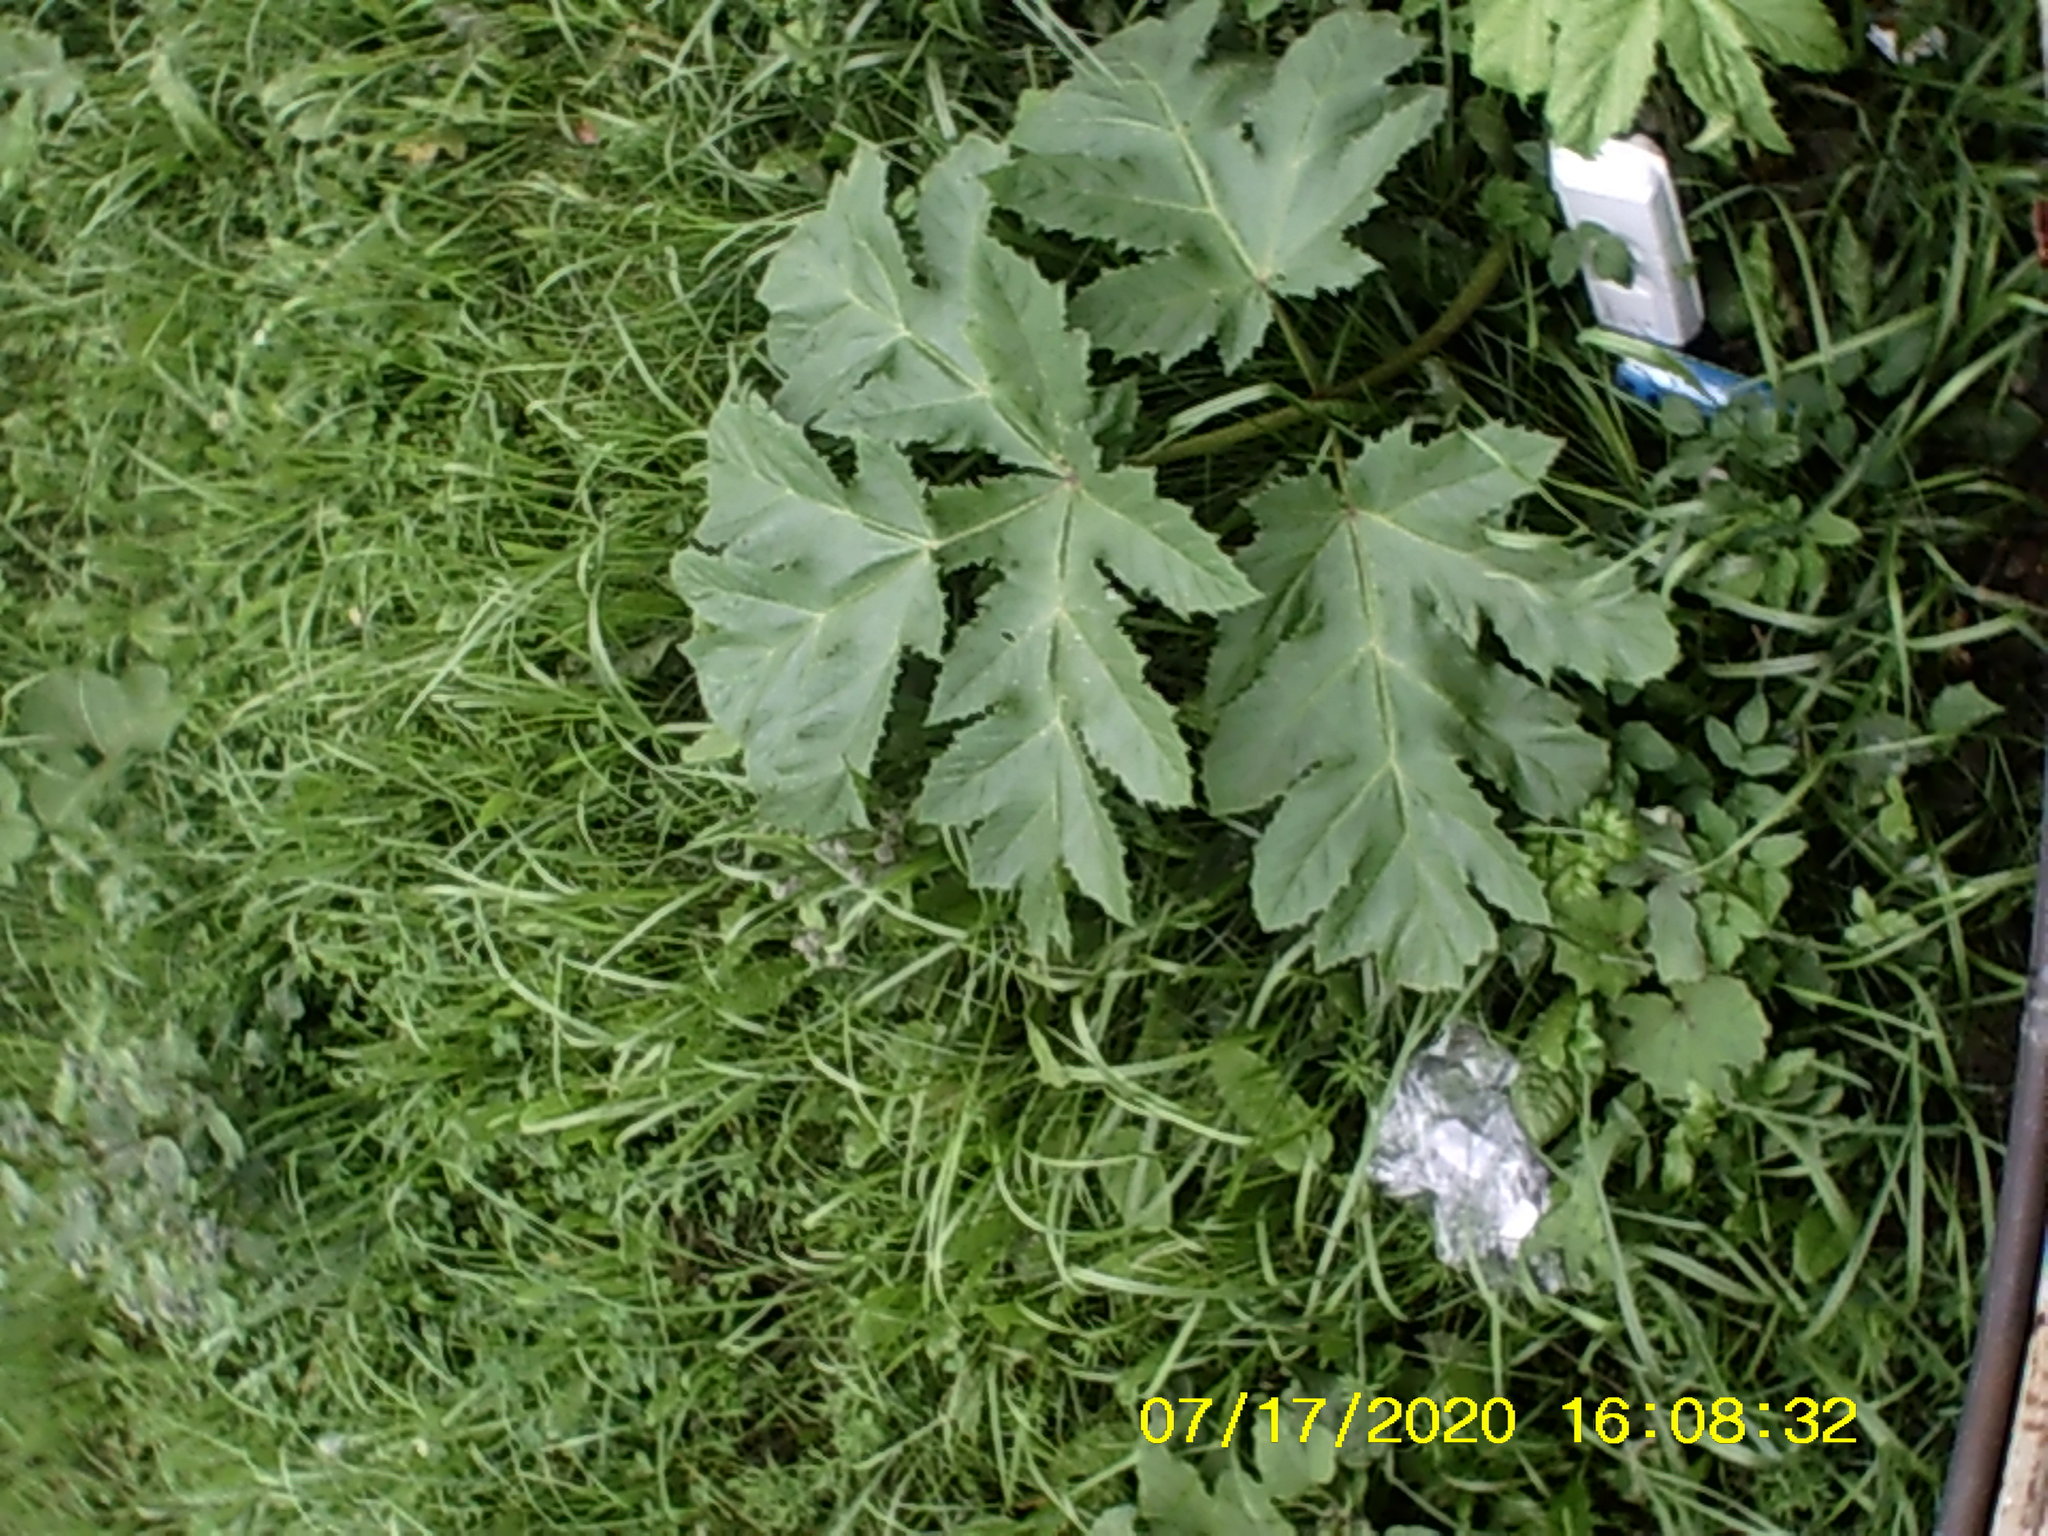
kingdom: Plantae
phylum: Tracheophyta
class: Magnoliopsida
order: Apiales
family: Apiaceae
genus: Heracleum
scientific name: Heracleum sosnowskyi
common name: Sosnowsky's hogweed
